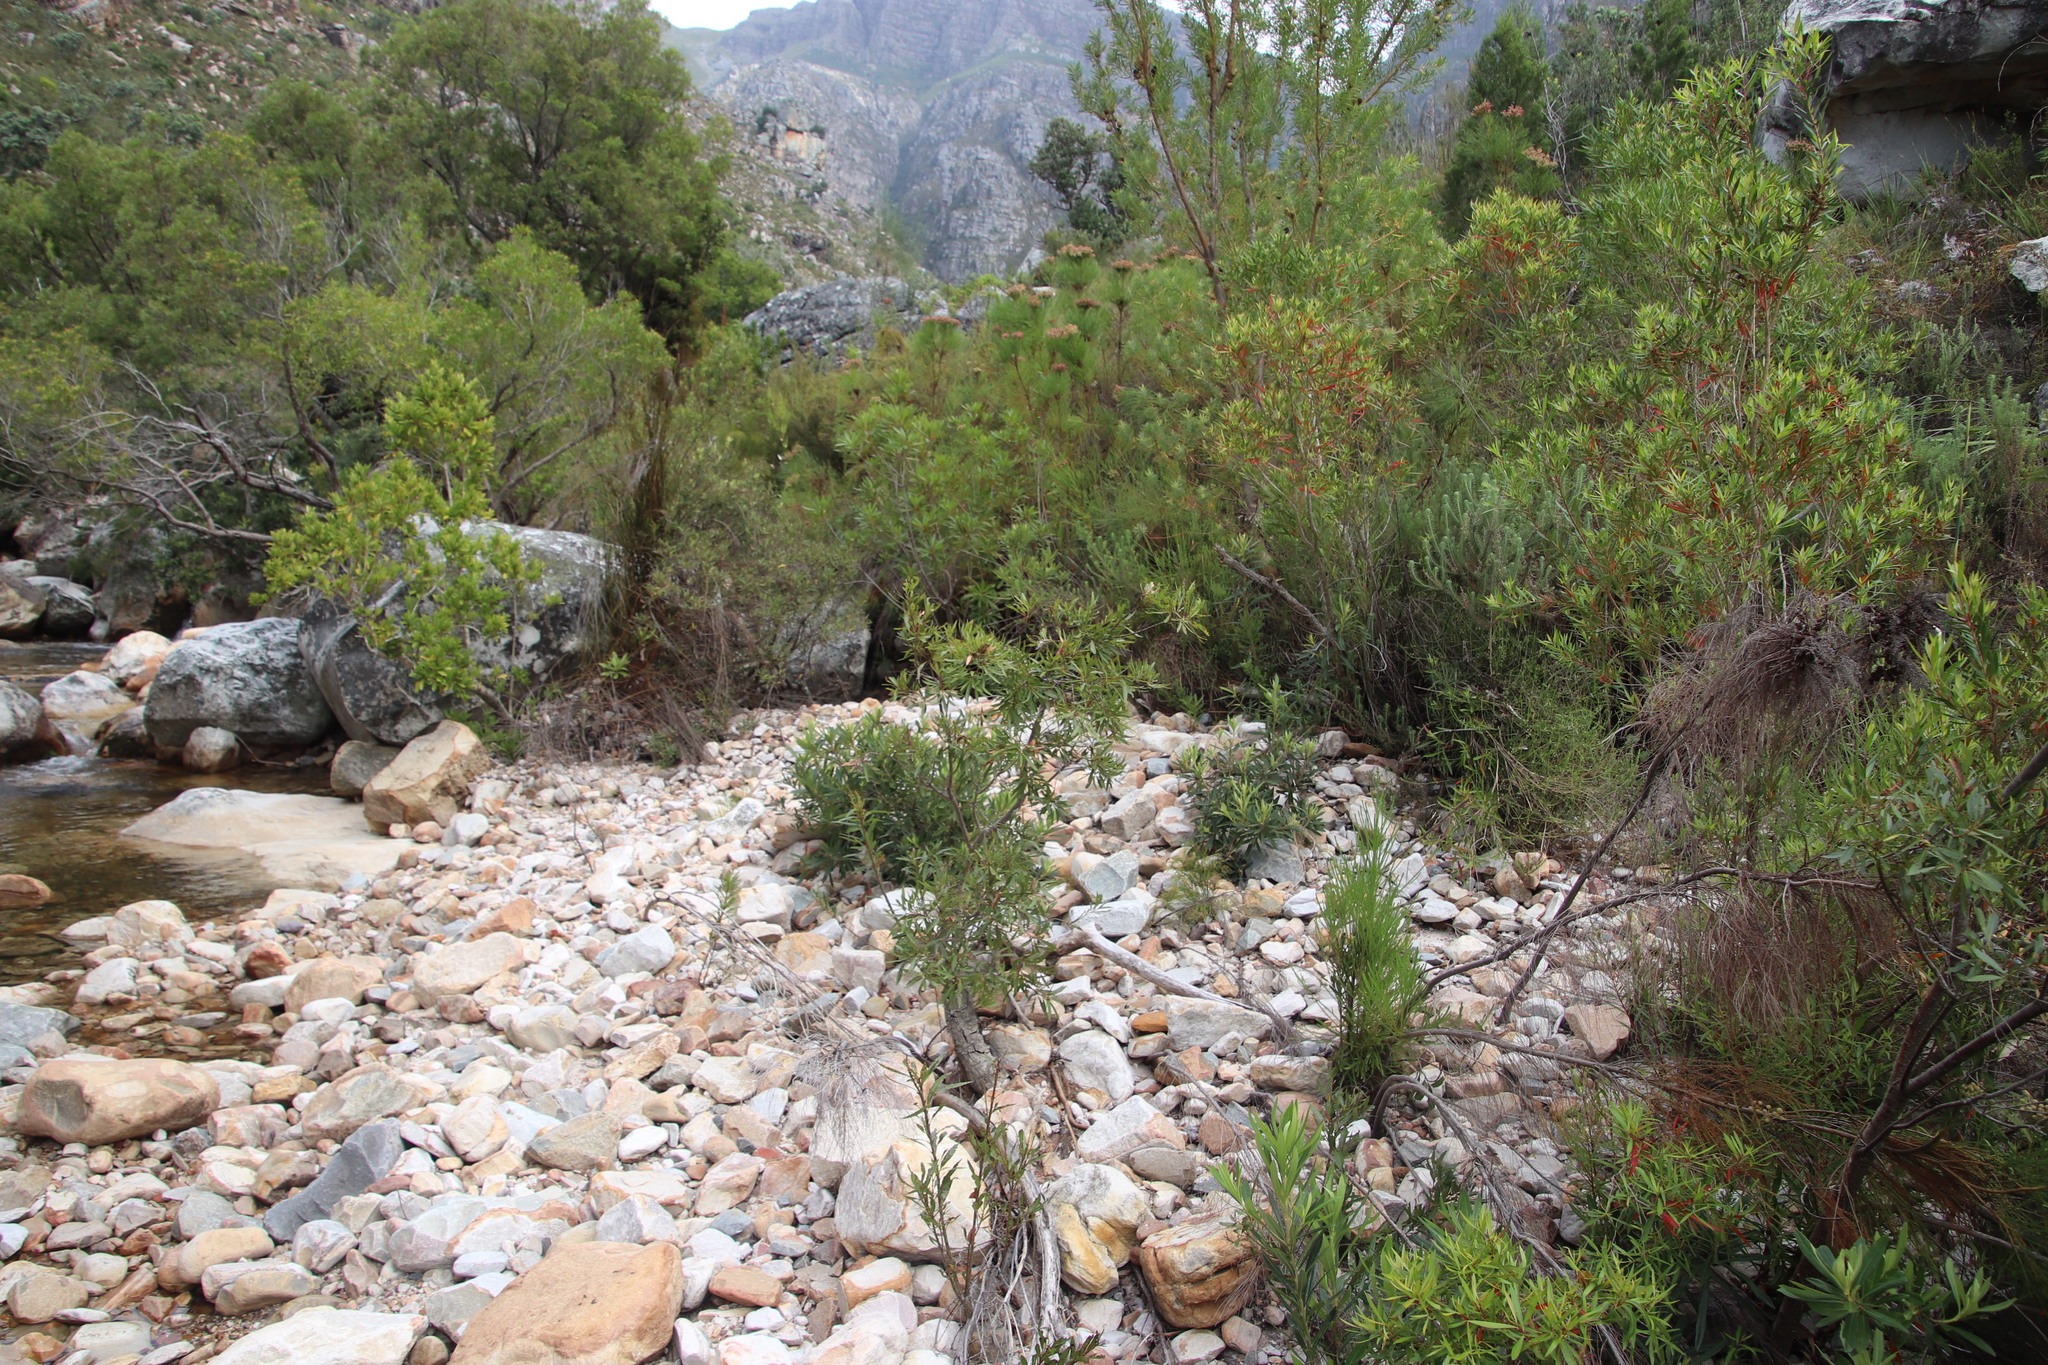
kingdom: Plantae
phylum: Tracheophyta
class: Magnoliopsida
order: Asterales
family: Asteraceae
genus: Brachylaena
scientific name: Brachylaena neriifolia
